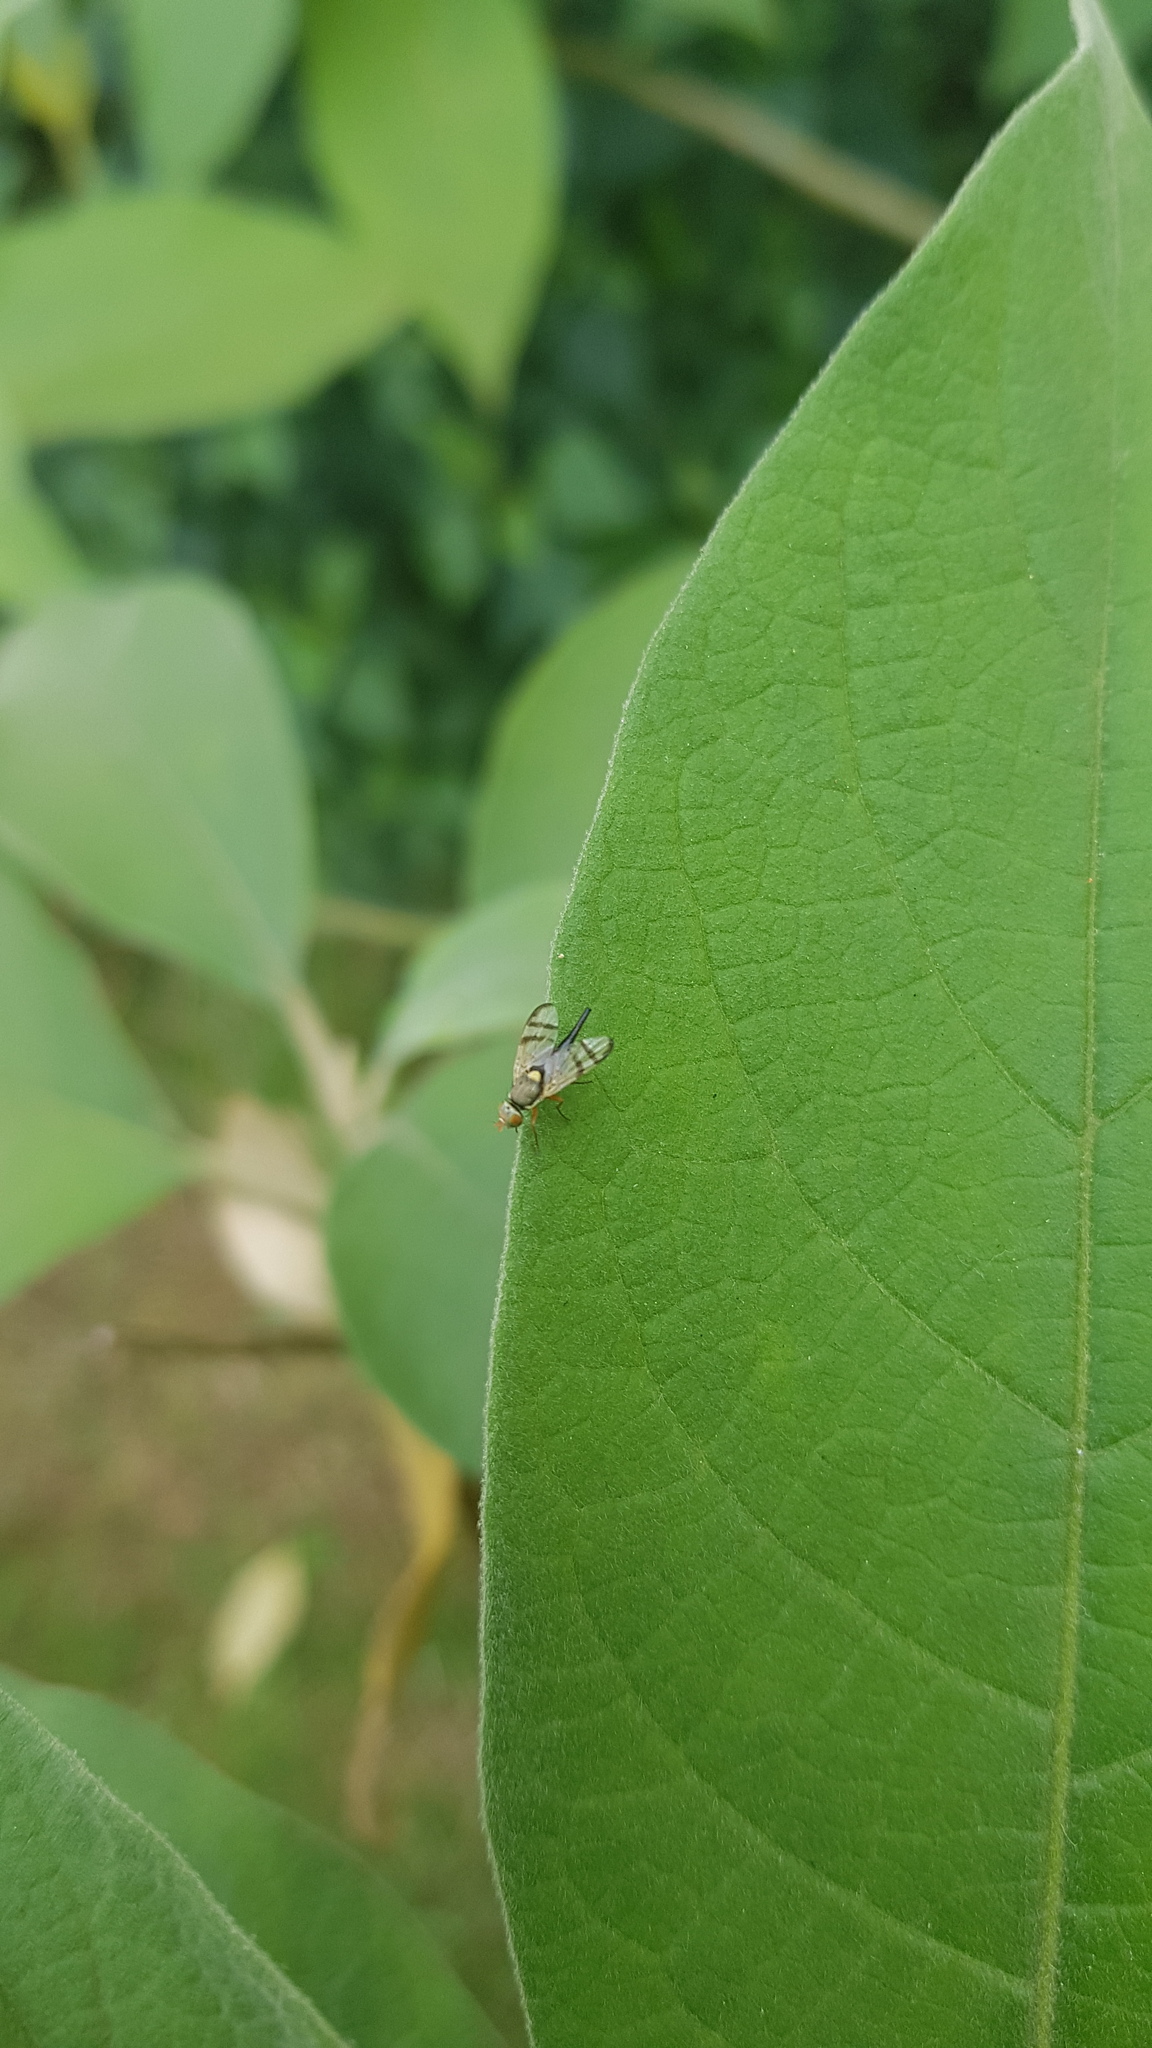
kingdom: Animalia
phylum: Arthropoda
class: Insecta
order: Diptera
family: Tephritidae
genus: Urophora
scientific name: Urophora stylata
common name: Fruit fly
